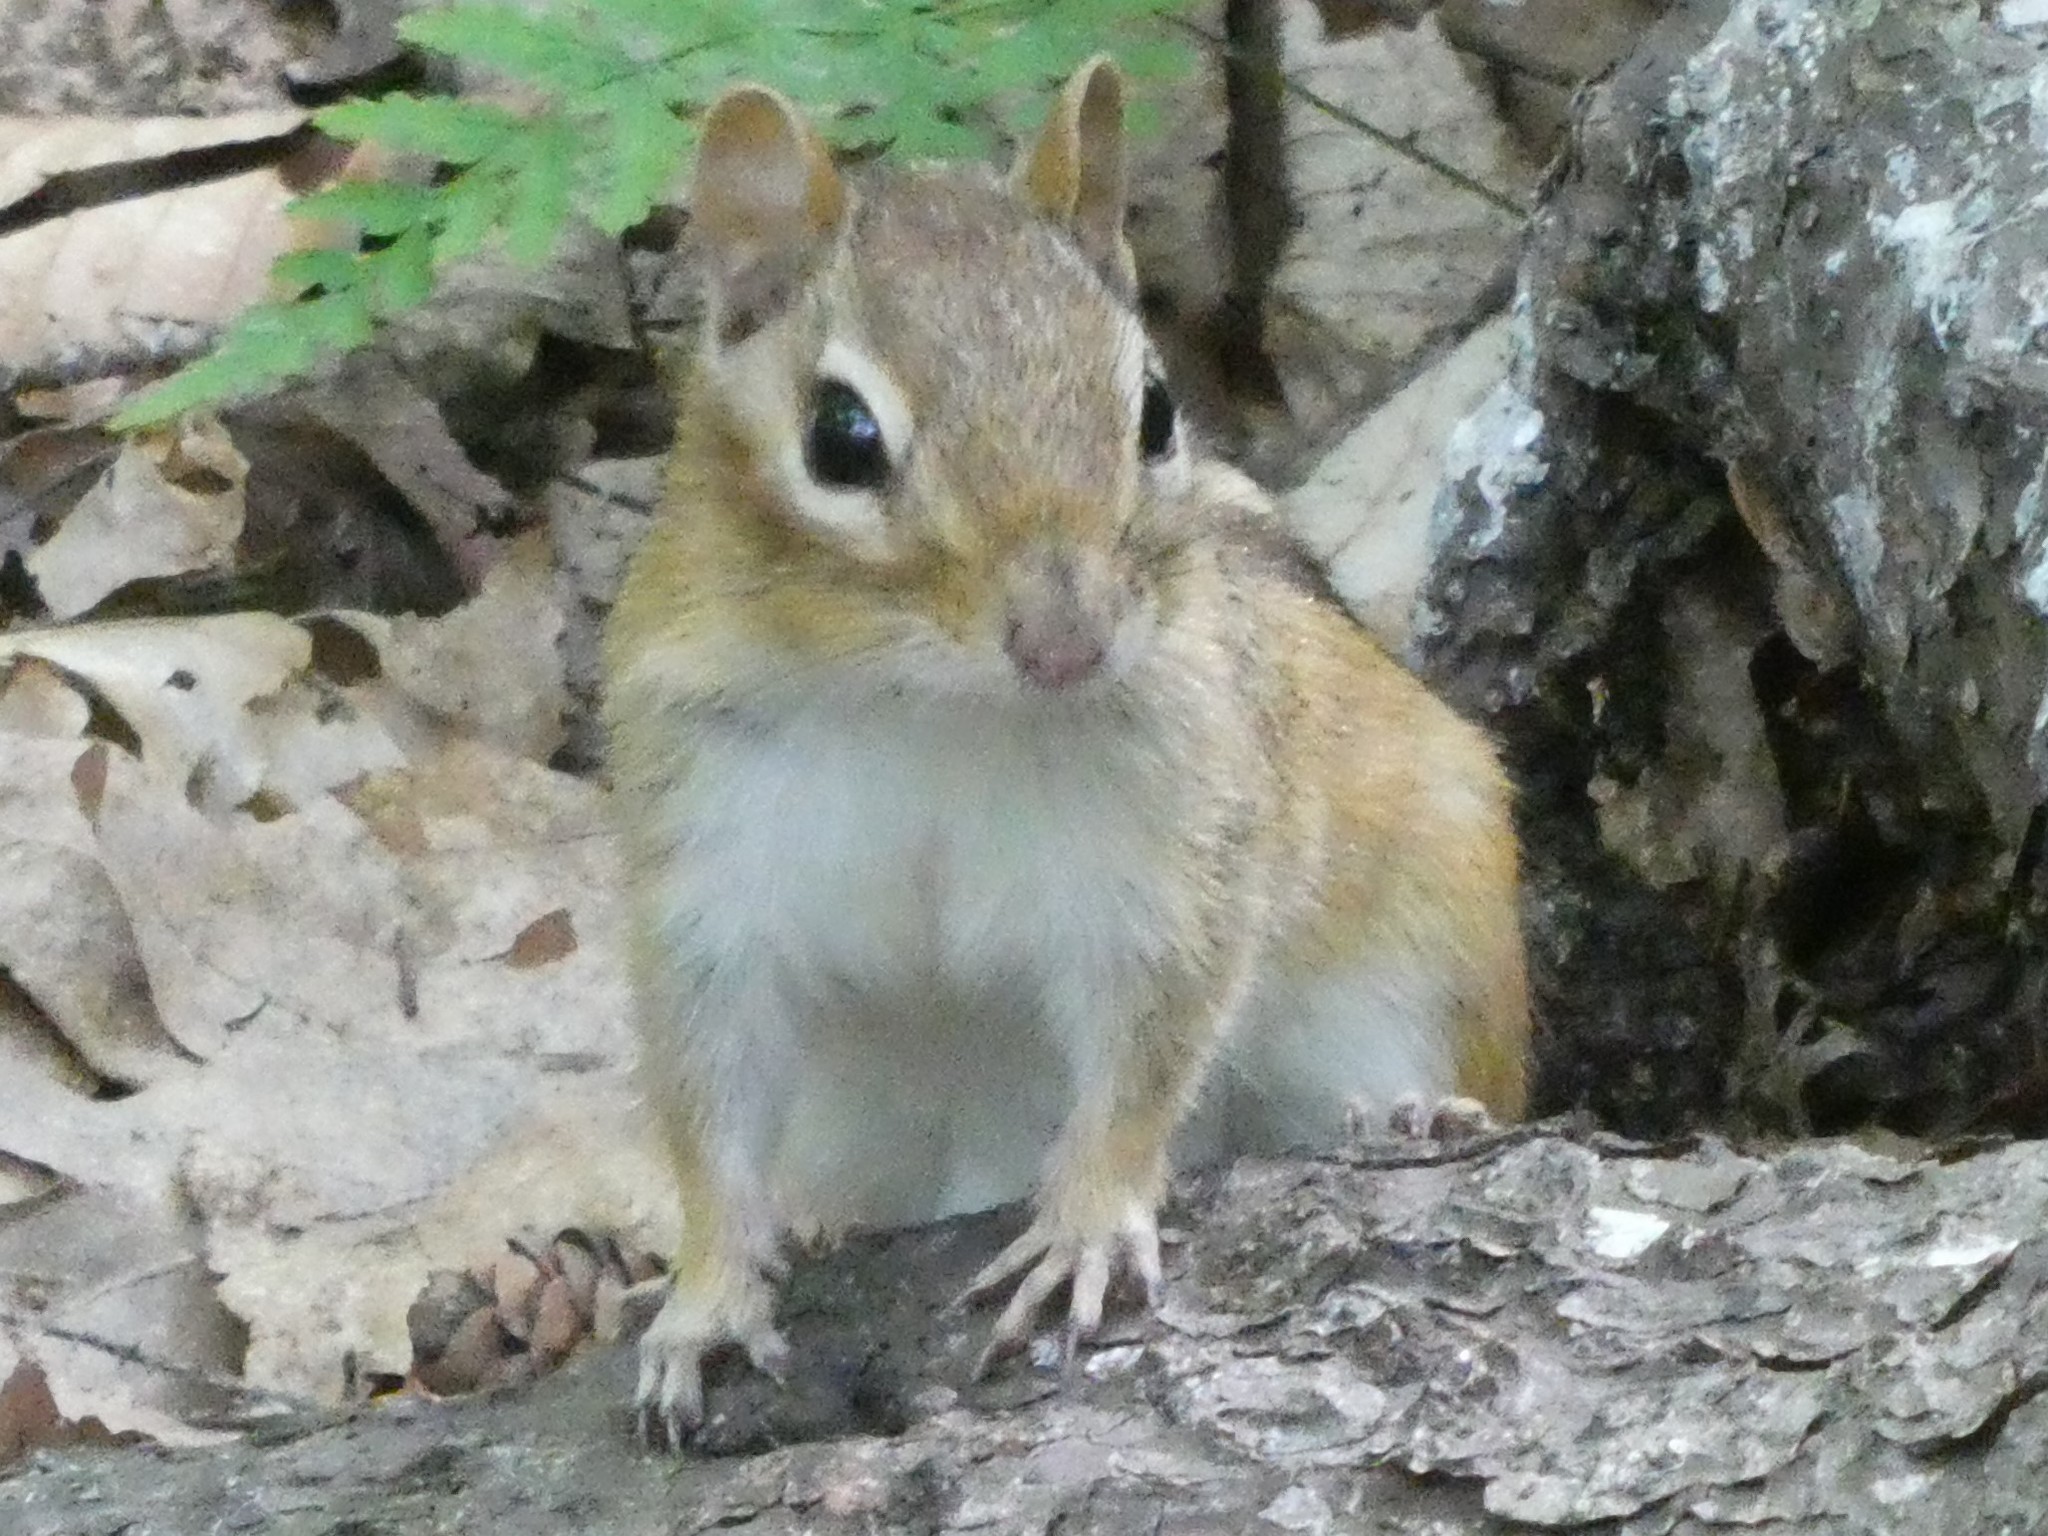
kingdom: Animalia
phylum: Chordata
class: Mammalia
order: Rodentia
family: Sciuridae
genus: Tamias
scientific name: Tamias striatus
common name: Eastern chipmunk
